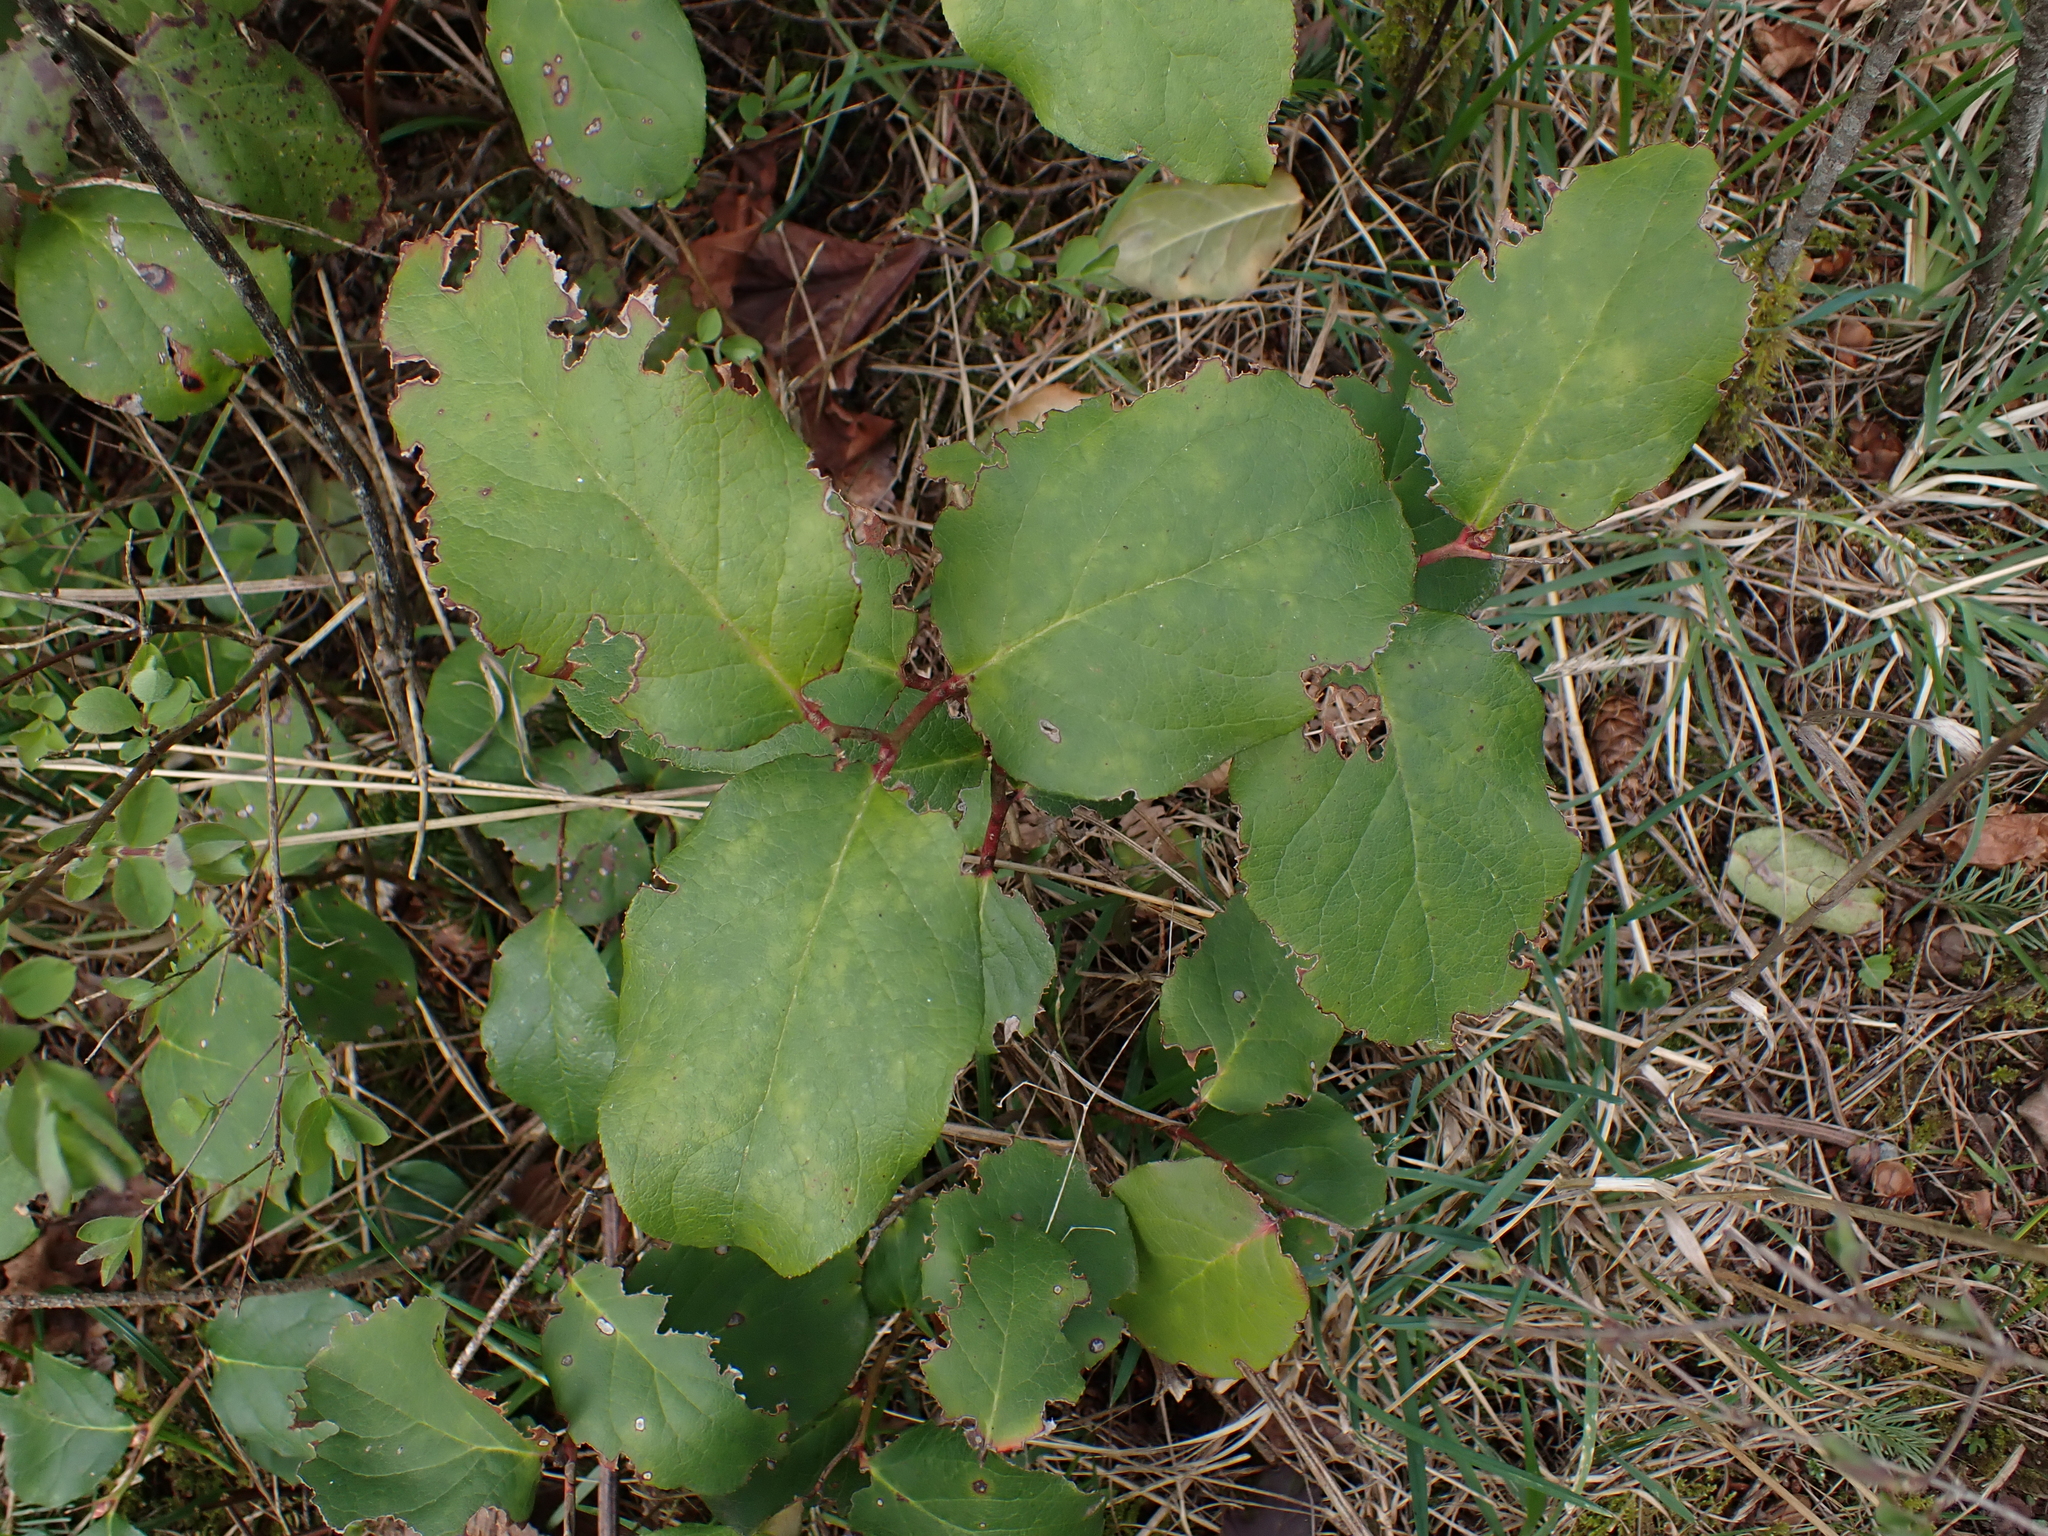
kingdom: Plantae
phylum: Tracheophyta
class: Magnoliopsida
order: Ericales
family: Ericaceae
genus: Gaultheria
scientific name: Gaultheria shallon
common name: Shallon
